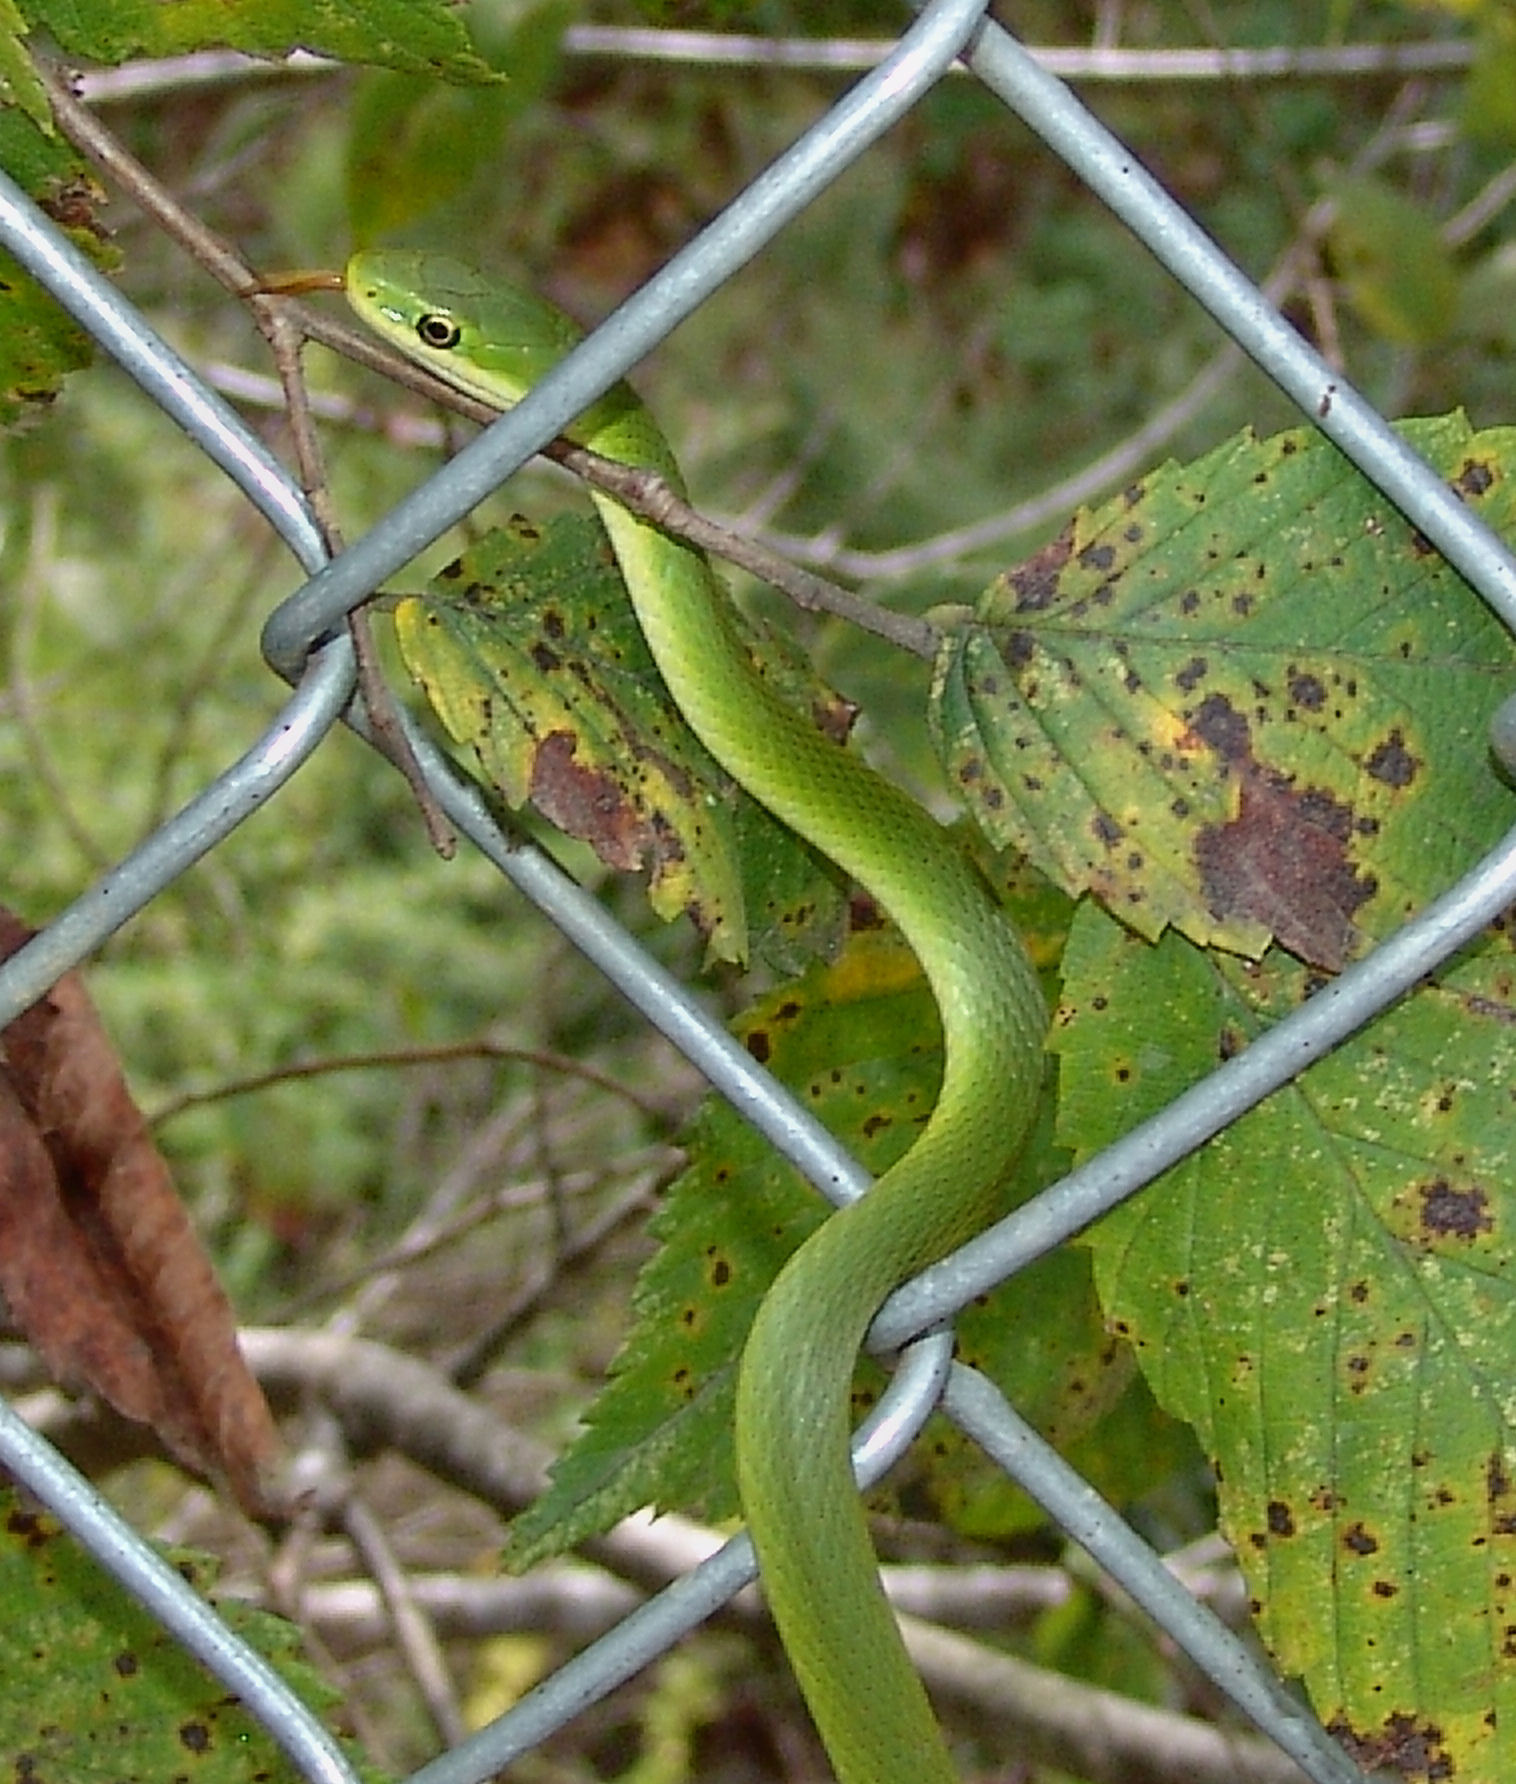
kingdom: Animalia
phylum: Chordata
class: Squamata
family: Colubridae
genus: Opheodrys
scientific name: Opheodrys aestivus
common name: Rough greensnake
